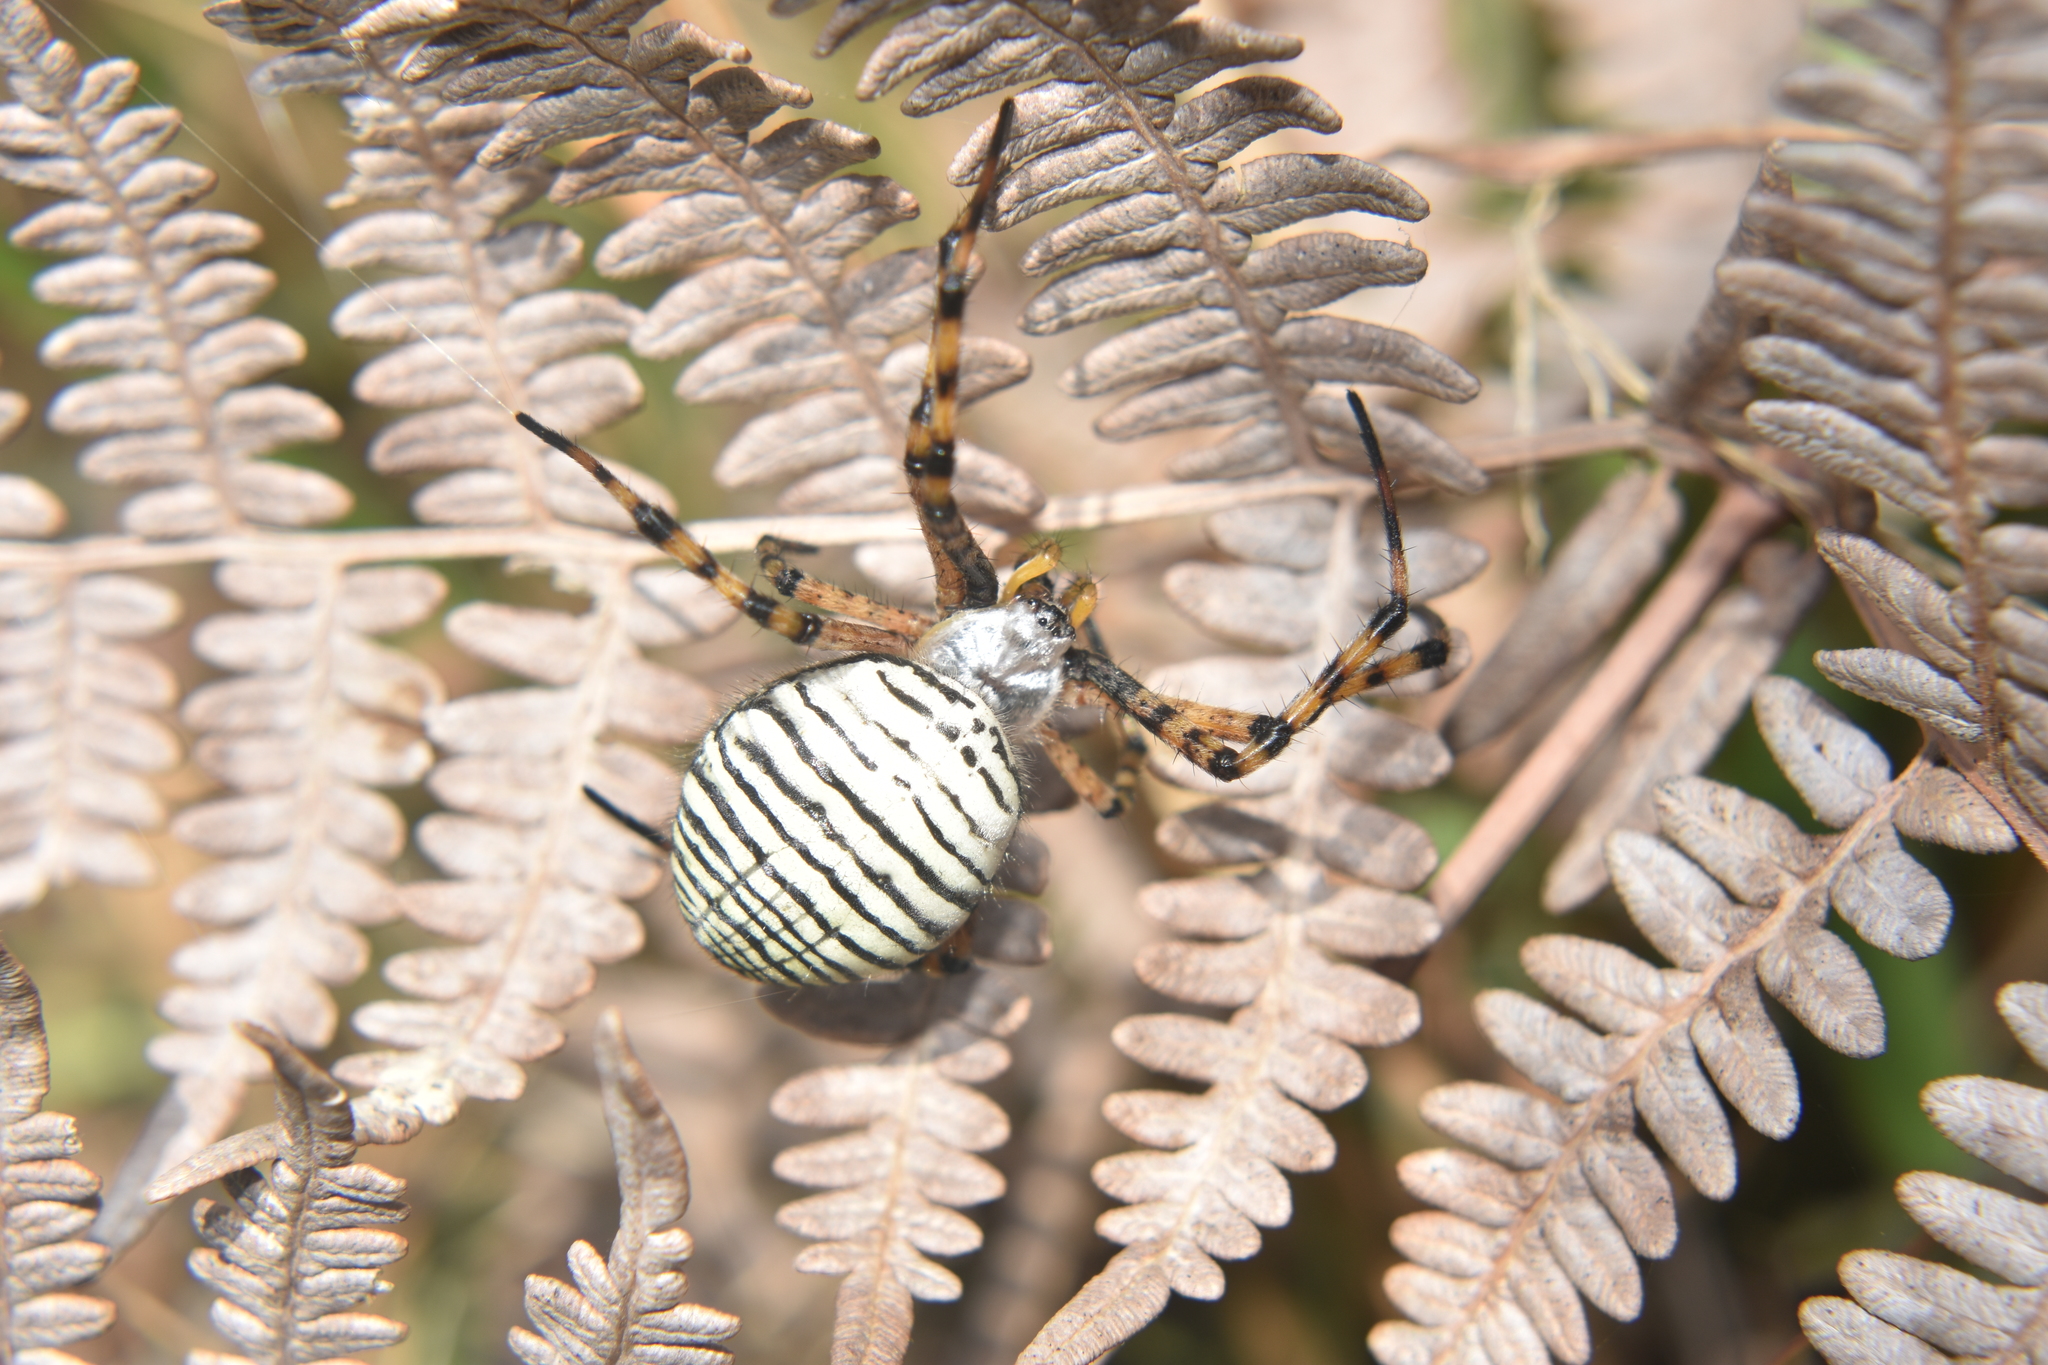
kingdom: Animalia
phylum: Arthropoda
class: Arachnida
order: Araneae
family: Araneidae
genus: Argiope
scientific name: Argiope trifasciata
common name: Banded garden spider
